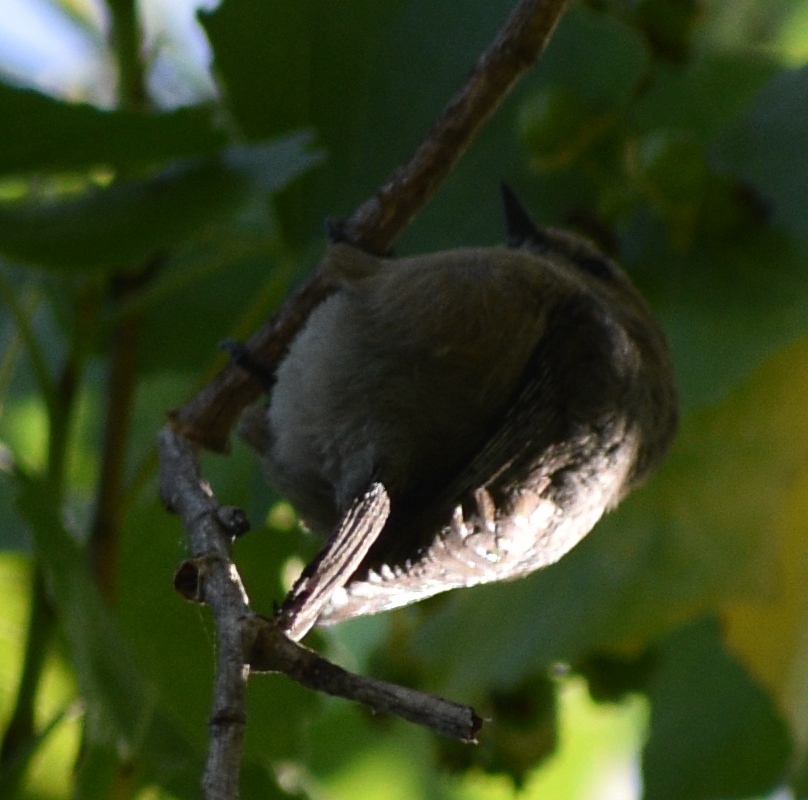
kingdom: Animalia
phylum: Chordata
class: Aves
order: Passeriformes
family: Aegithalidae
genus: Psaltriparus
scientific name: Psaltriparus minimus
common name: American bushtit
